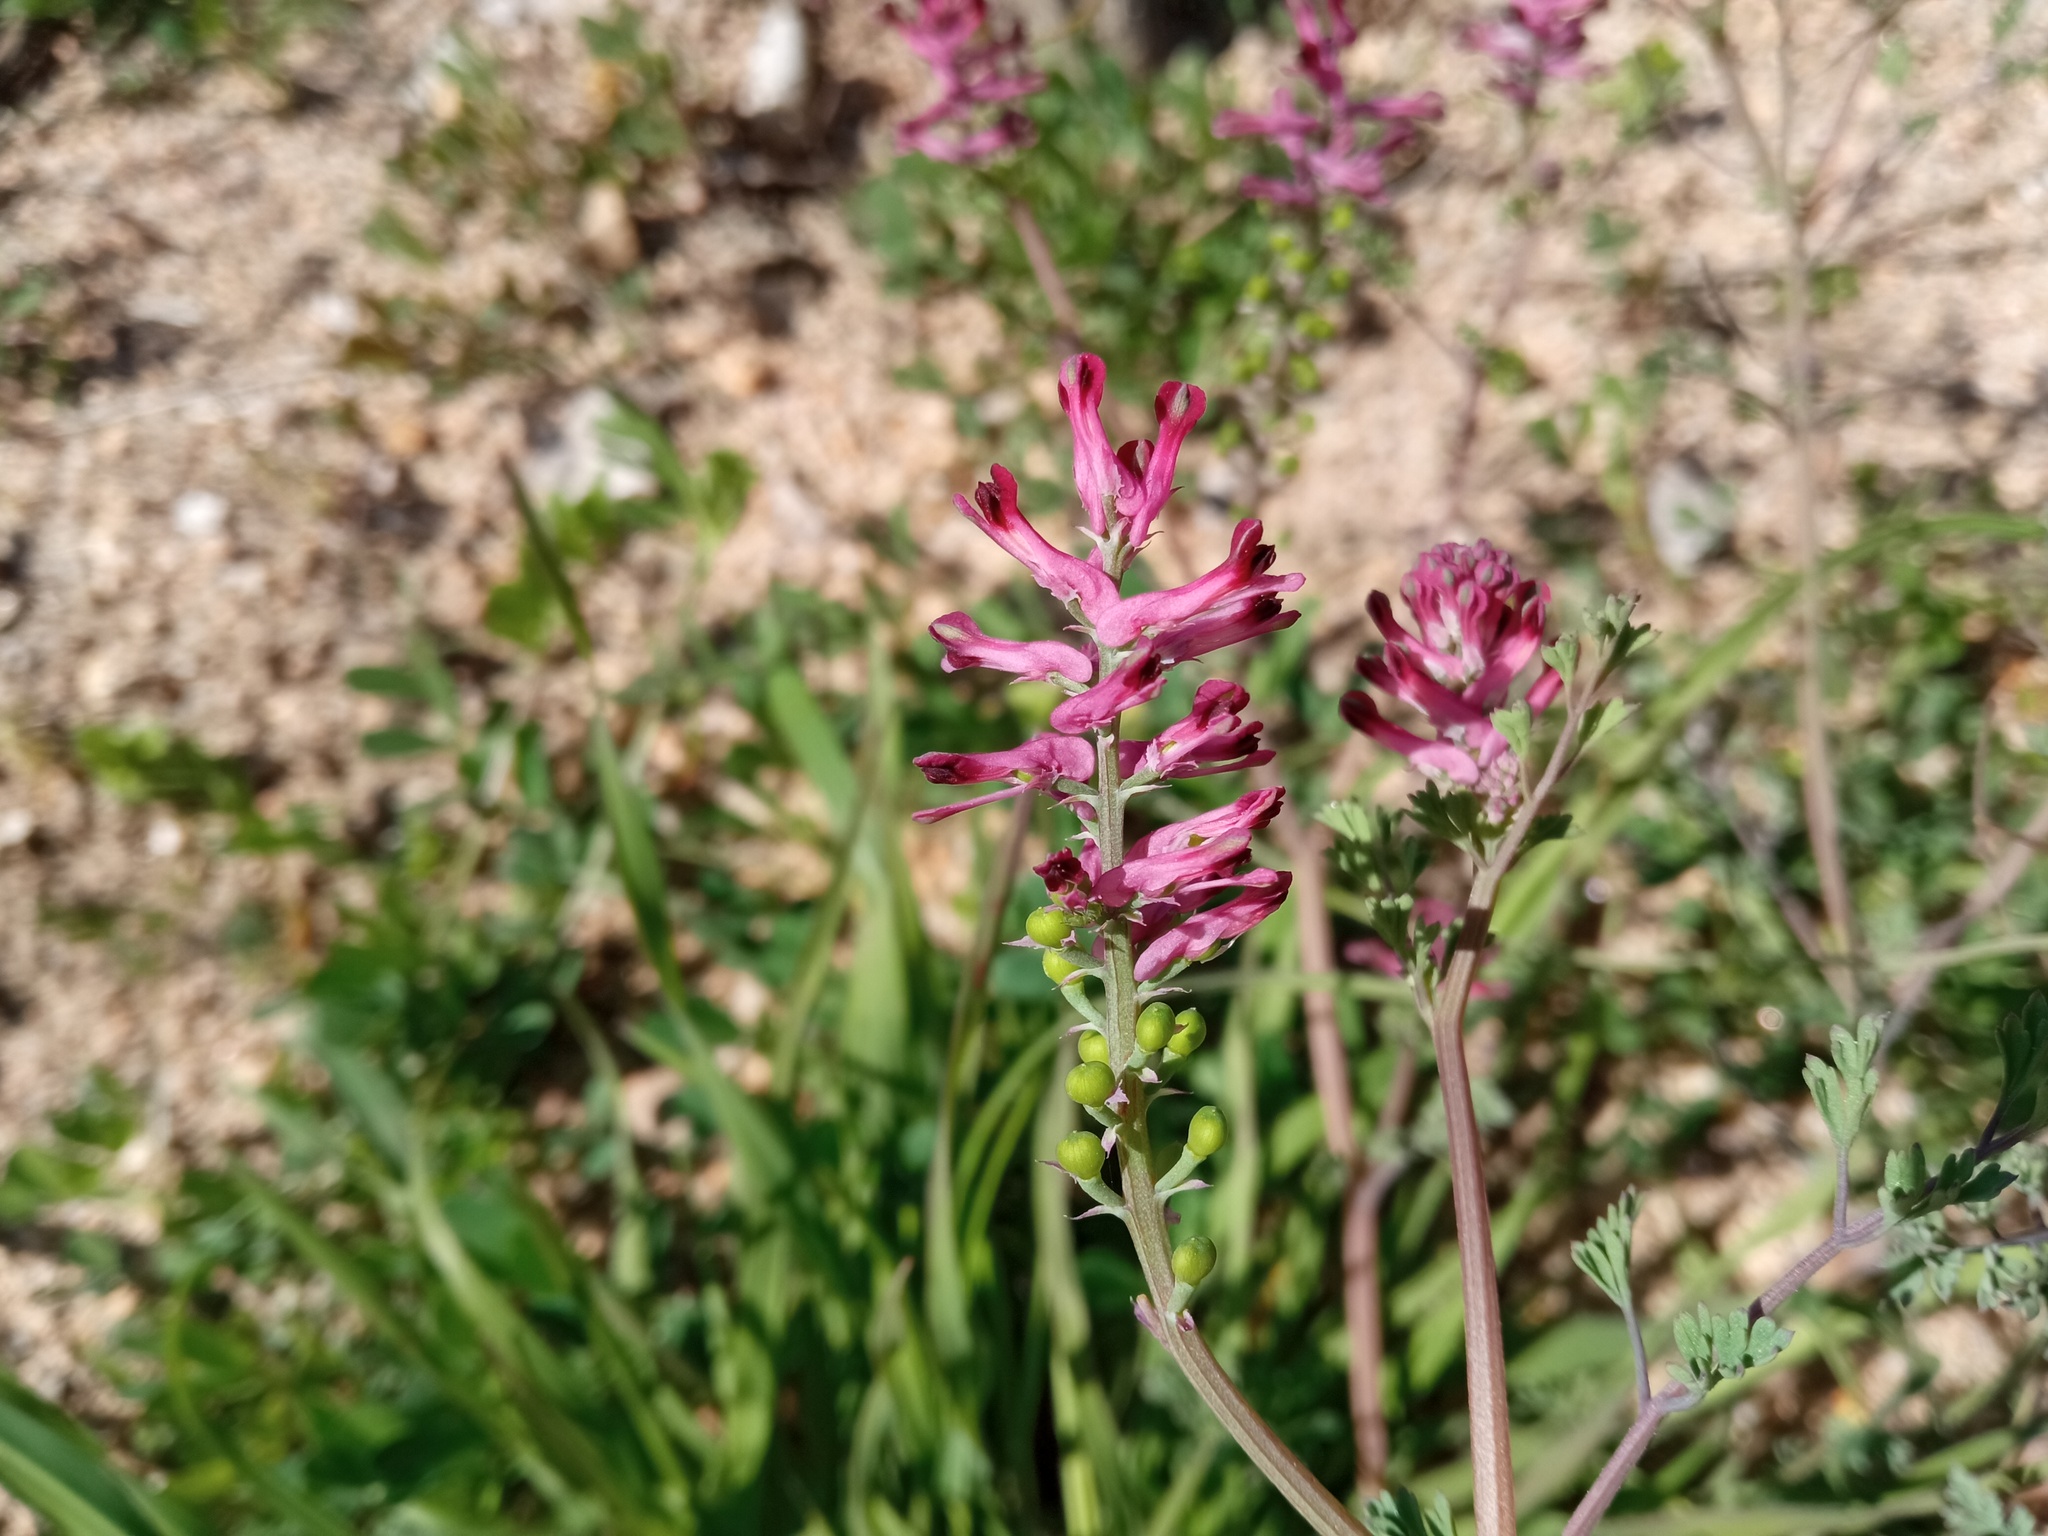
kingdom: Plantae
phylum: Tracheophyta
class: Magnoliopsida
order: Ranunculales
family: Papaveraceae
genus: Fumaria
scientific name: Fumaria officinalis
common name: Common fumitory
